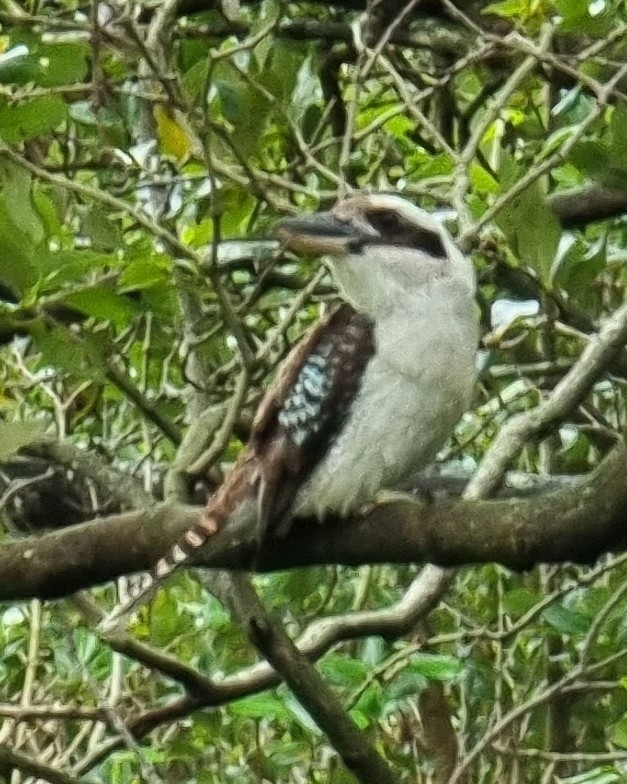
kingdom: Animalia
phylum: Chordata
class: Aves
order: Coraciiformes
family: Alcedinidae
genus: Dacelo
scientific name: Dacelo novaeguineae
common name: Laughing kookaburra
